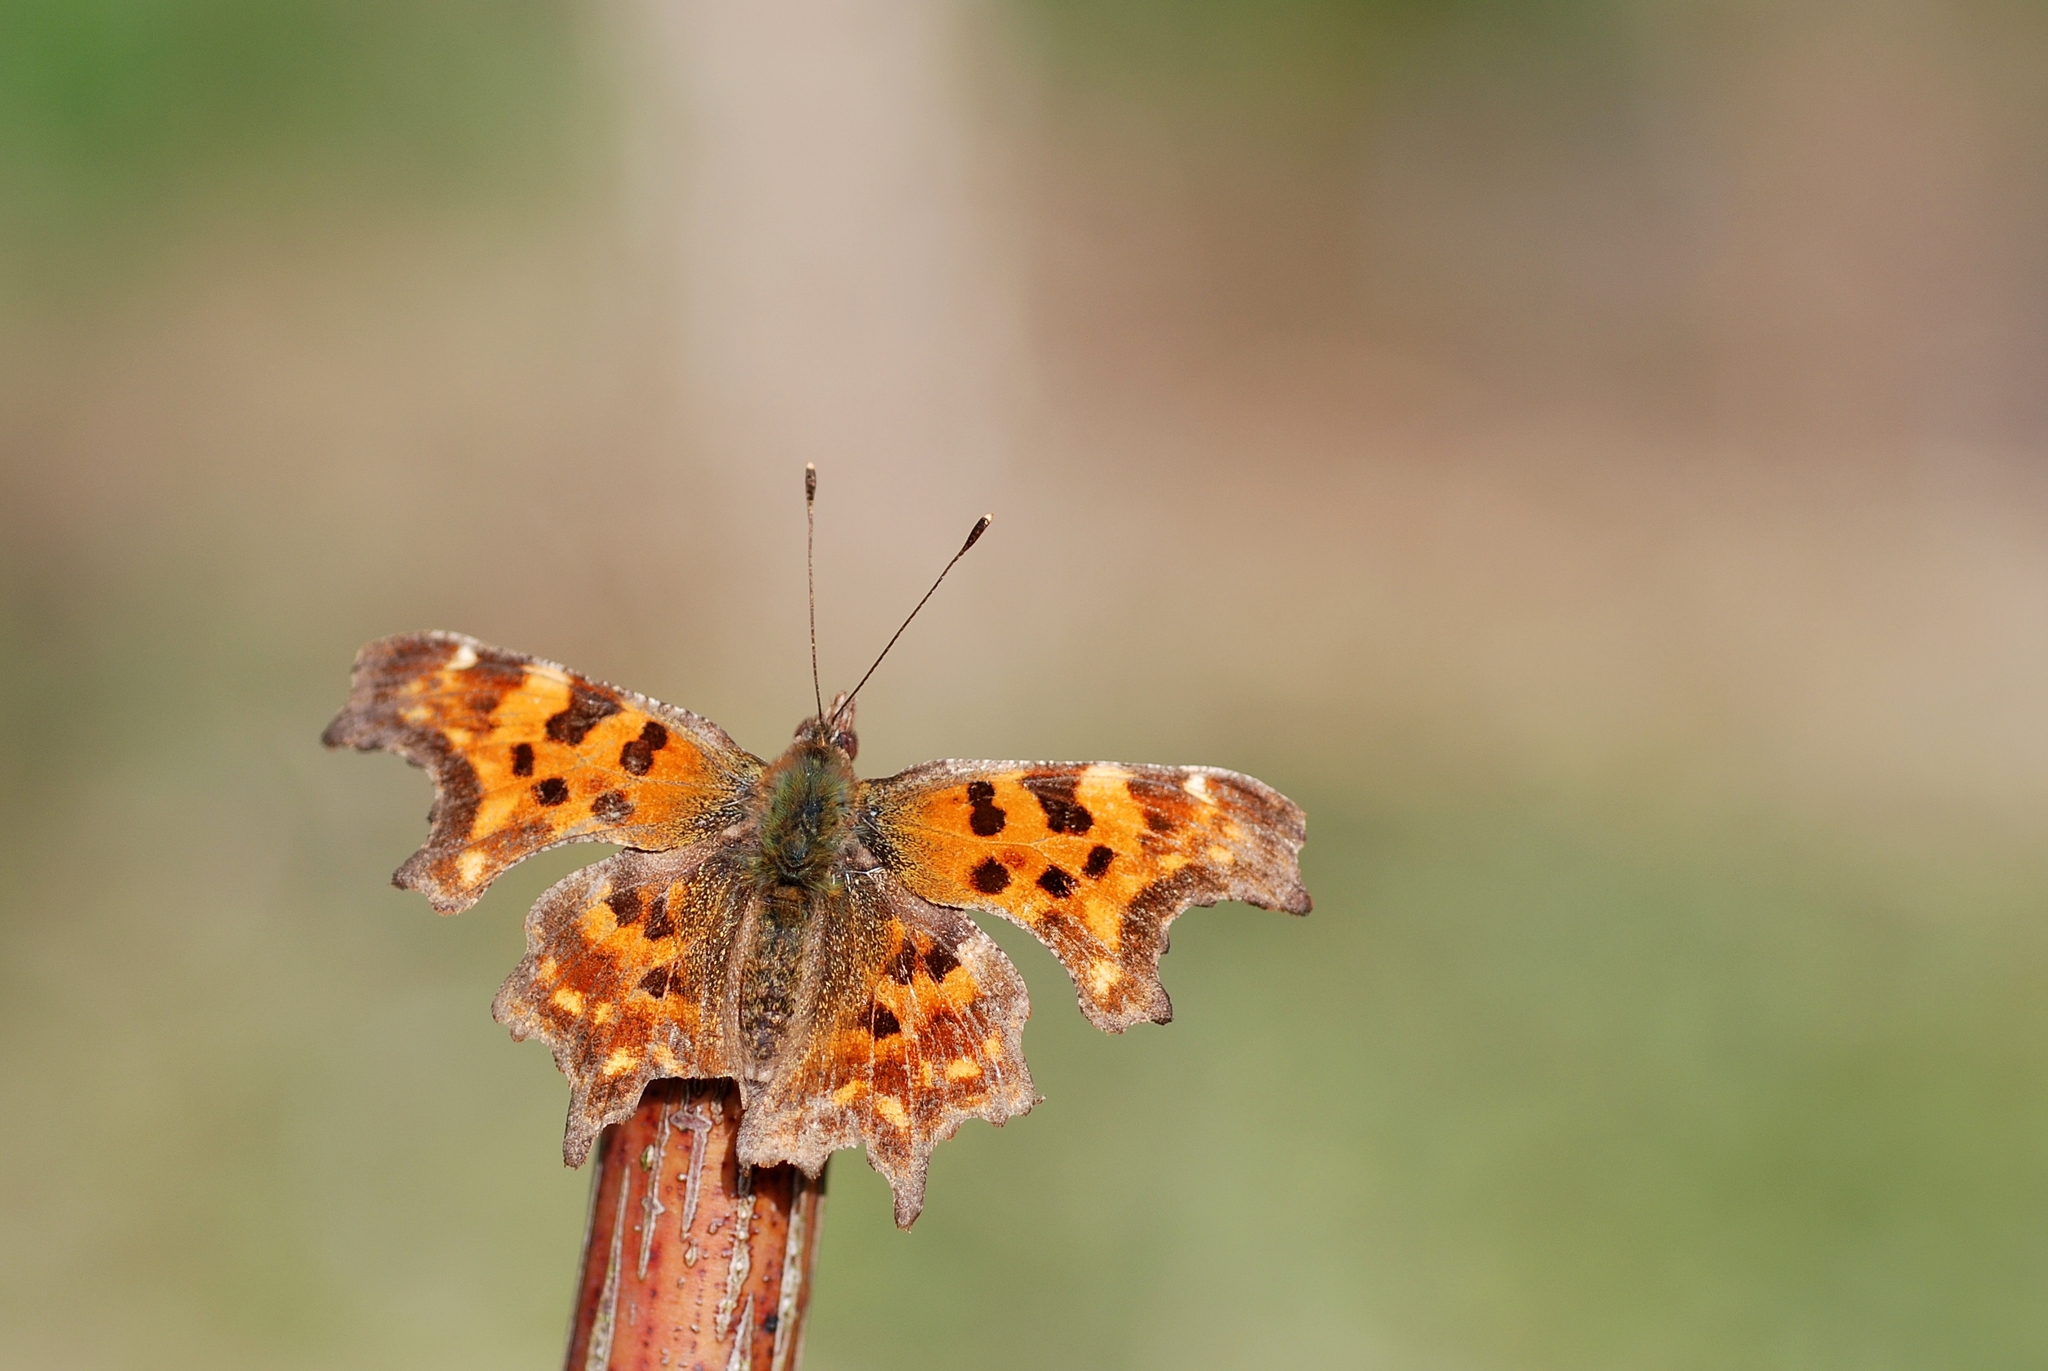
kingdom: Animalia
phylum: Arthropoda
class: Insecta
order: Lepidoptera
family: Nymphalidae
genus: Polygonia
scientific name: Polygonia c-album
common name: Comma
